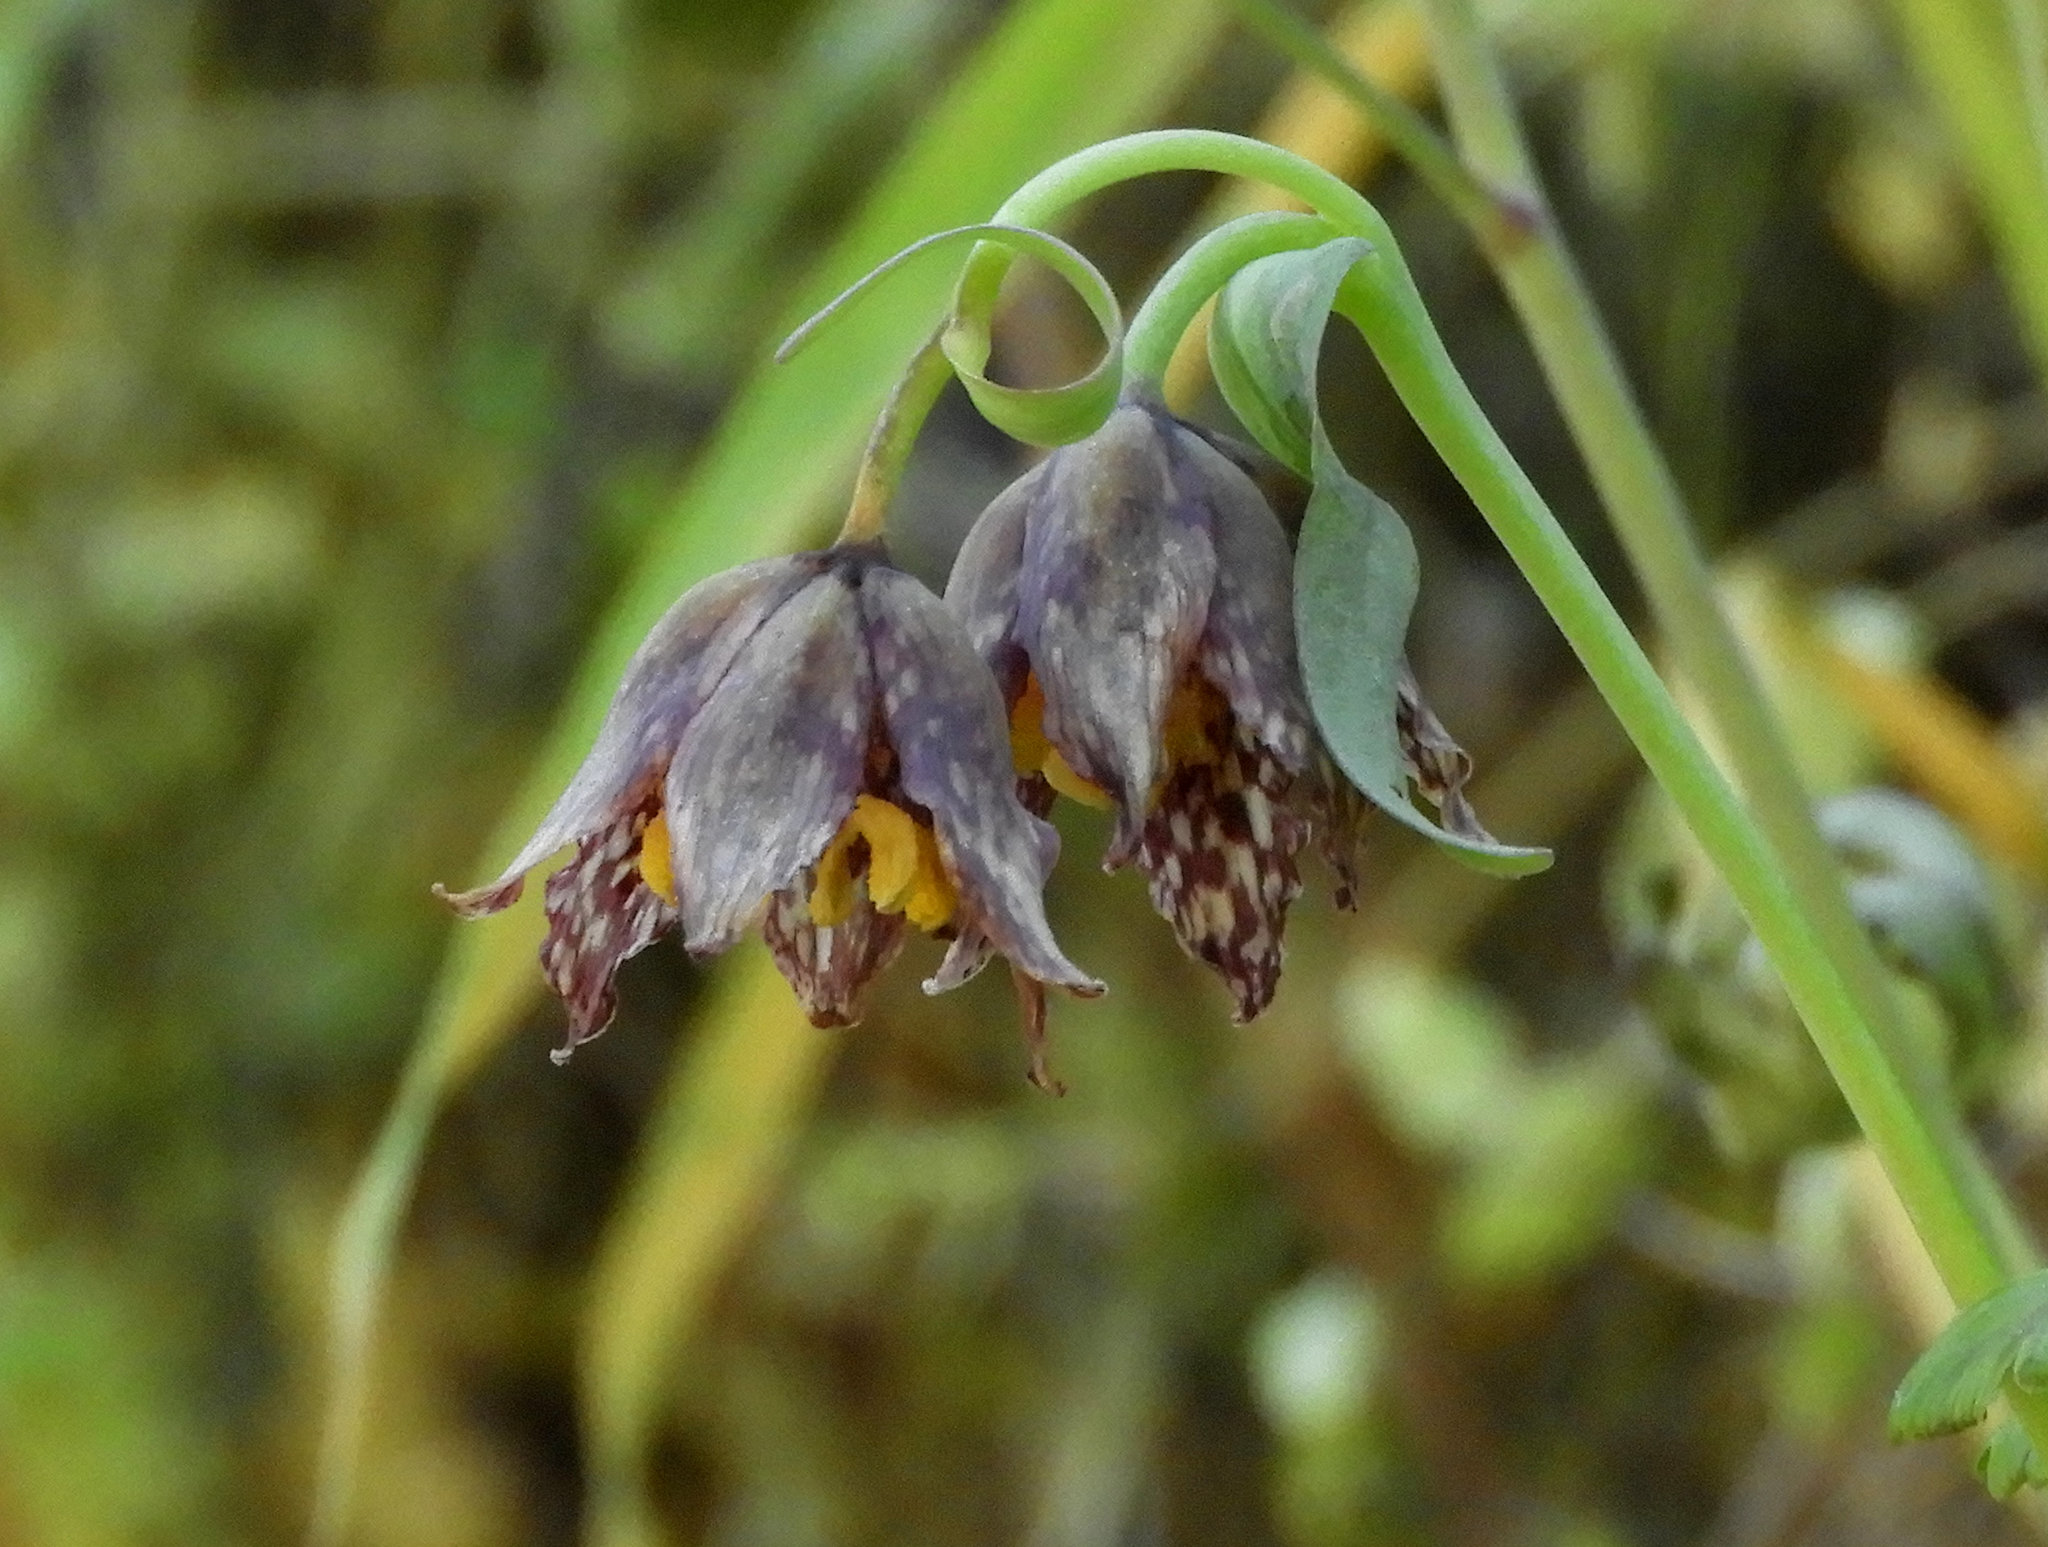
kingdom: Plantae
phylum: Tracheophyta
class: Liliopsida
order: Liliales
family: Liliaceae
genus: Fritillaria
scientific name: Fritillaria affinis
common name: Ojai fritillary
